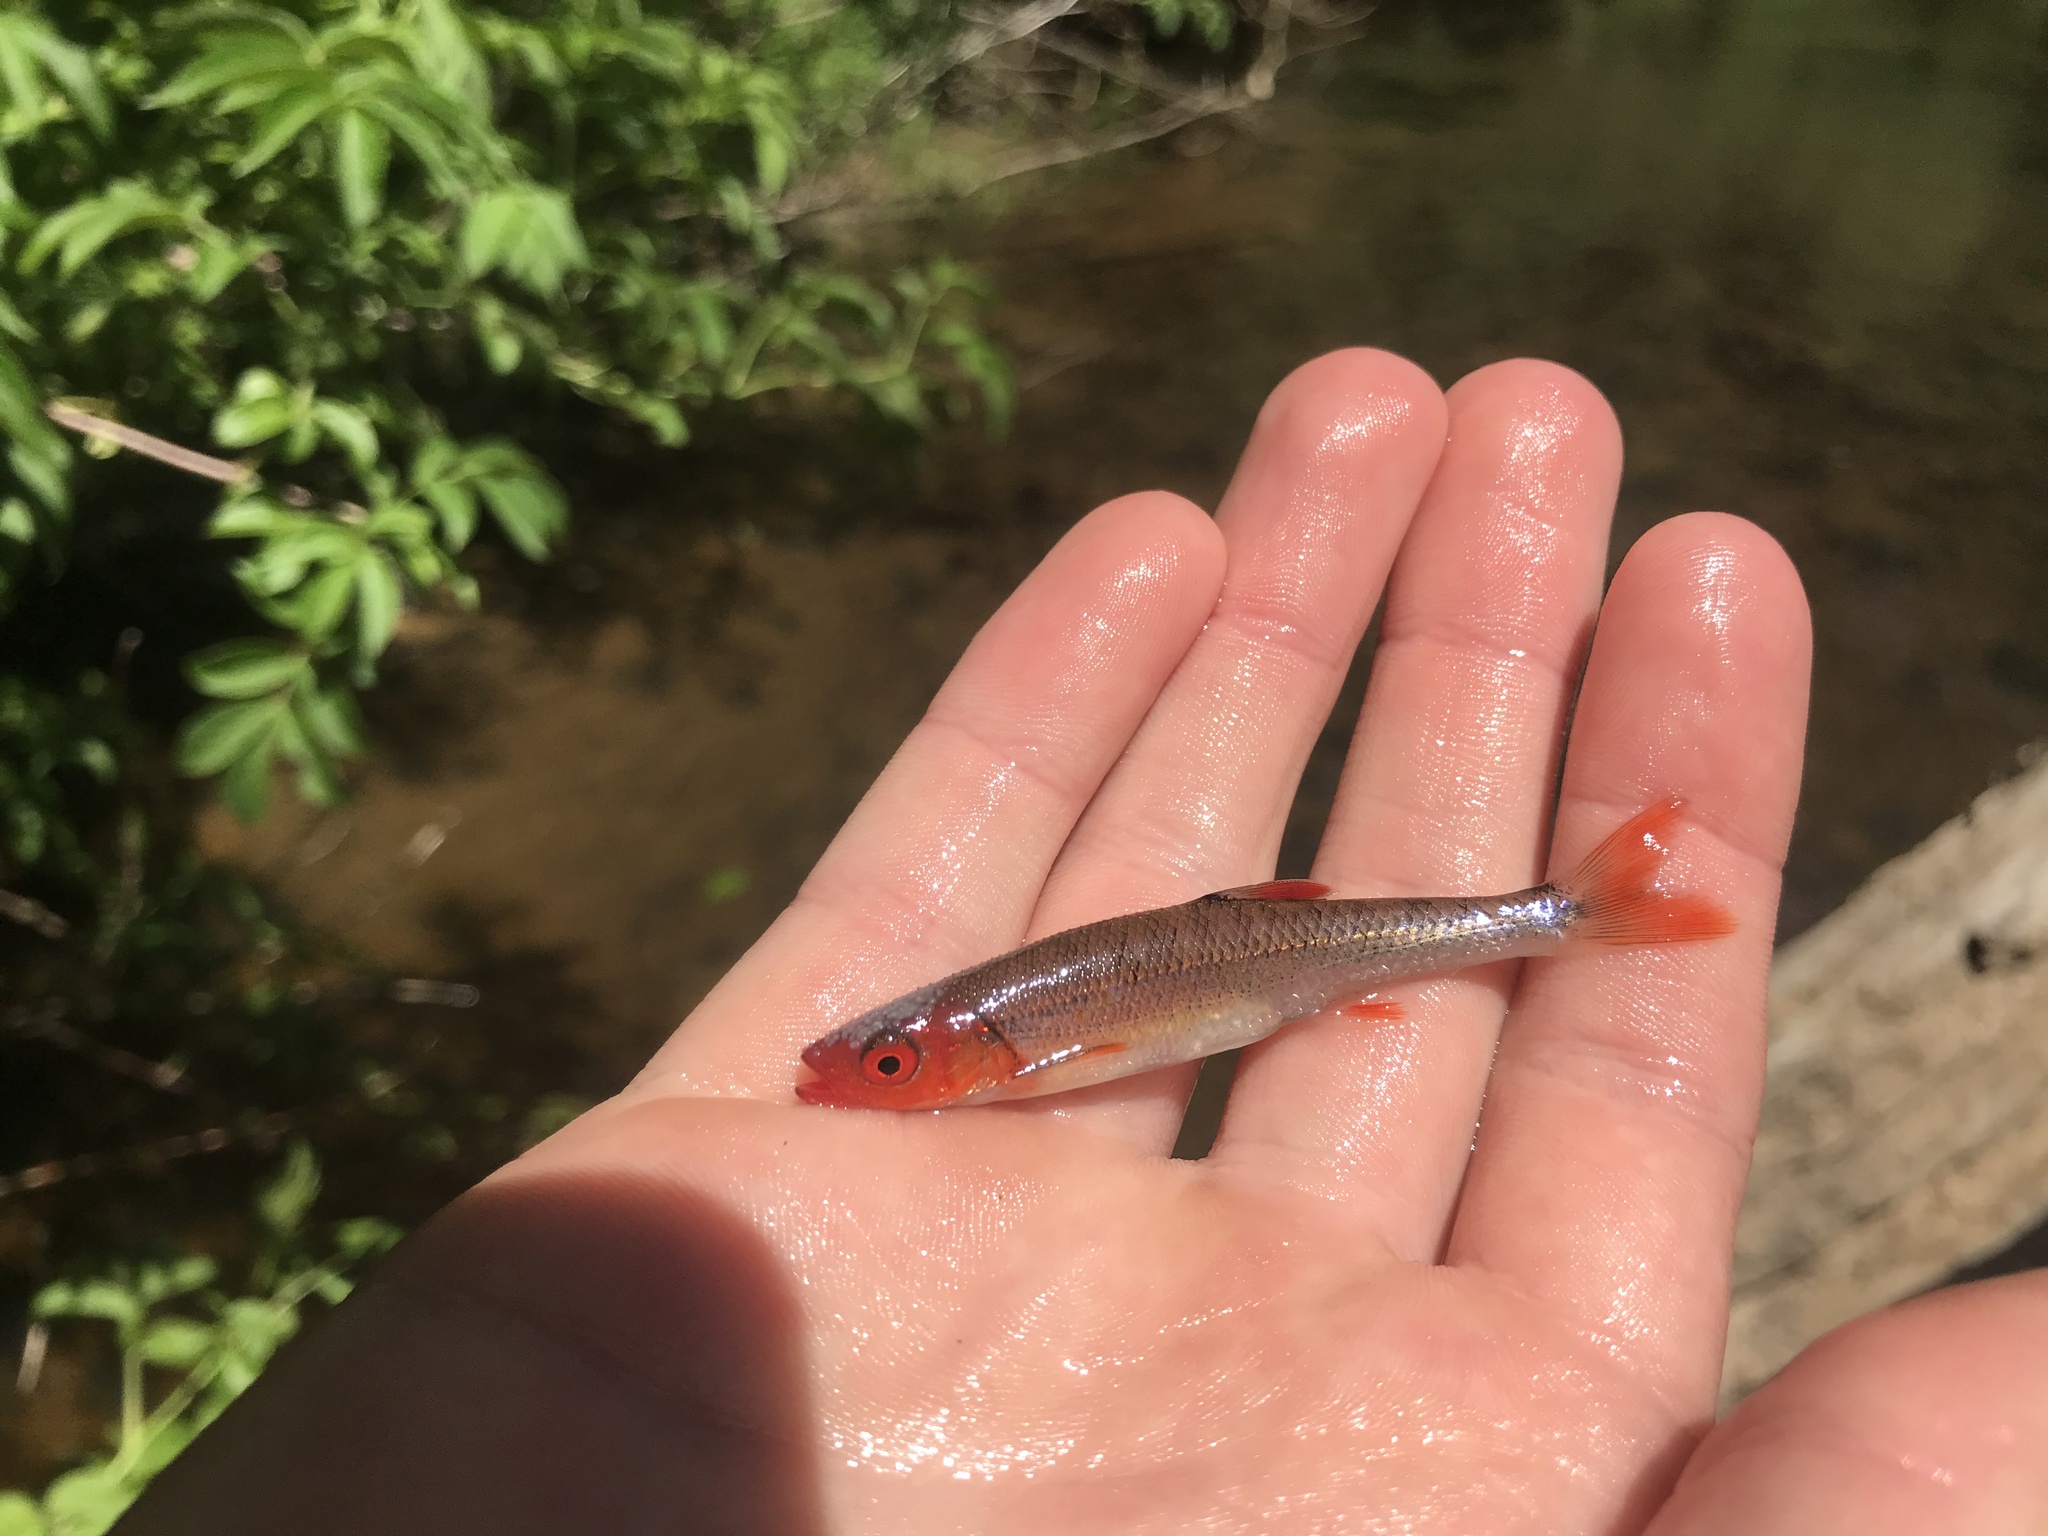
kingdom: Animalia
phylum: Chordata
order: Cypriniformes
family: Cyprinidae
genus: Lythrurus
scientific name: Lythrurus matutinus
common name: Pinewoods shiner
